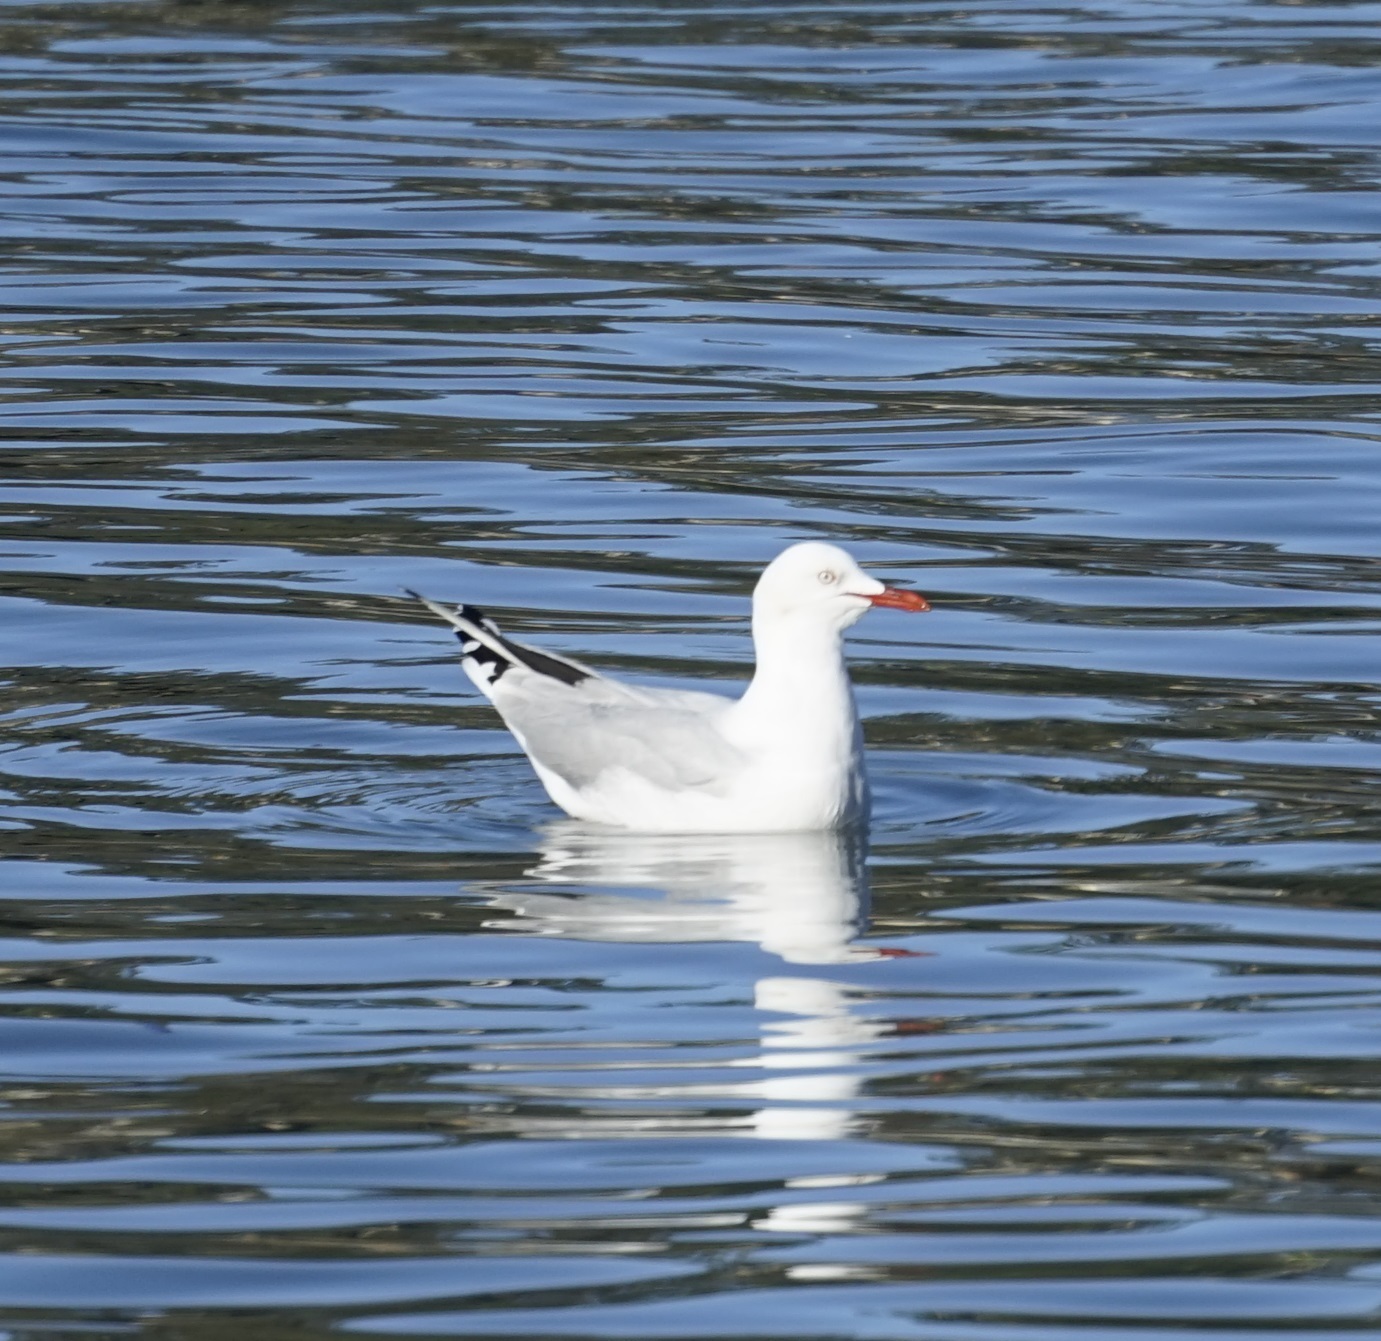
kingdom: Animalia
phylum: Chordata
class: Aves
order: Charadriiformes
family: Laridae
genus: Chroicocephalus
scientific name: Chroicocephalus novaehollandiae
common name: Silver gull
